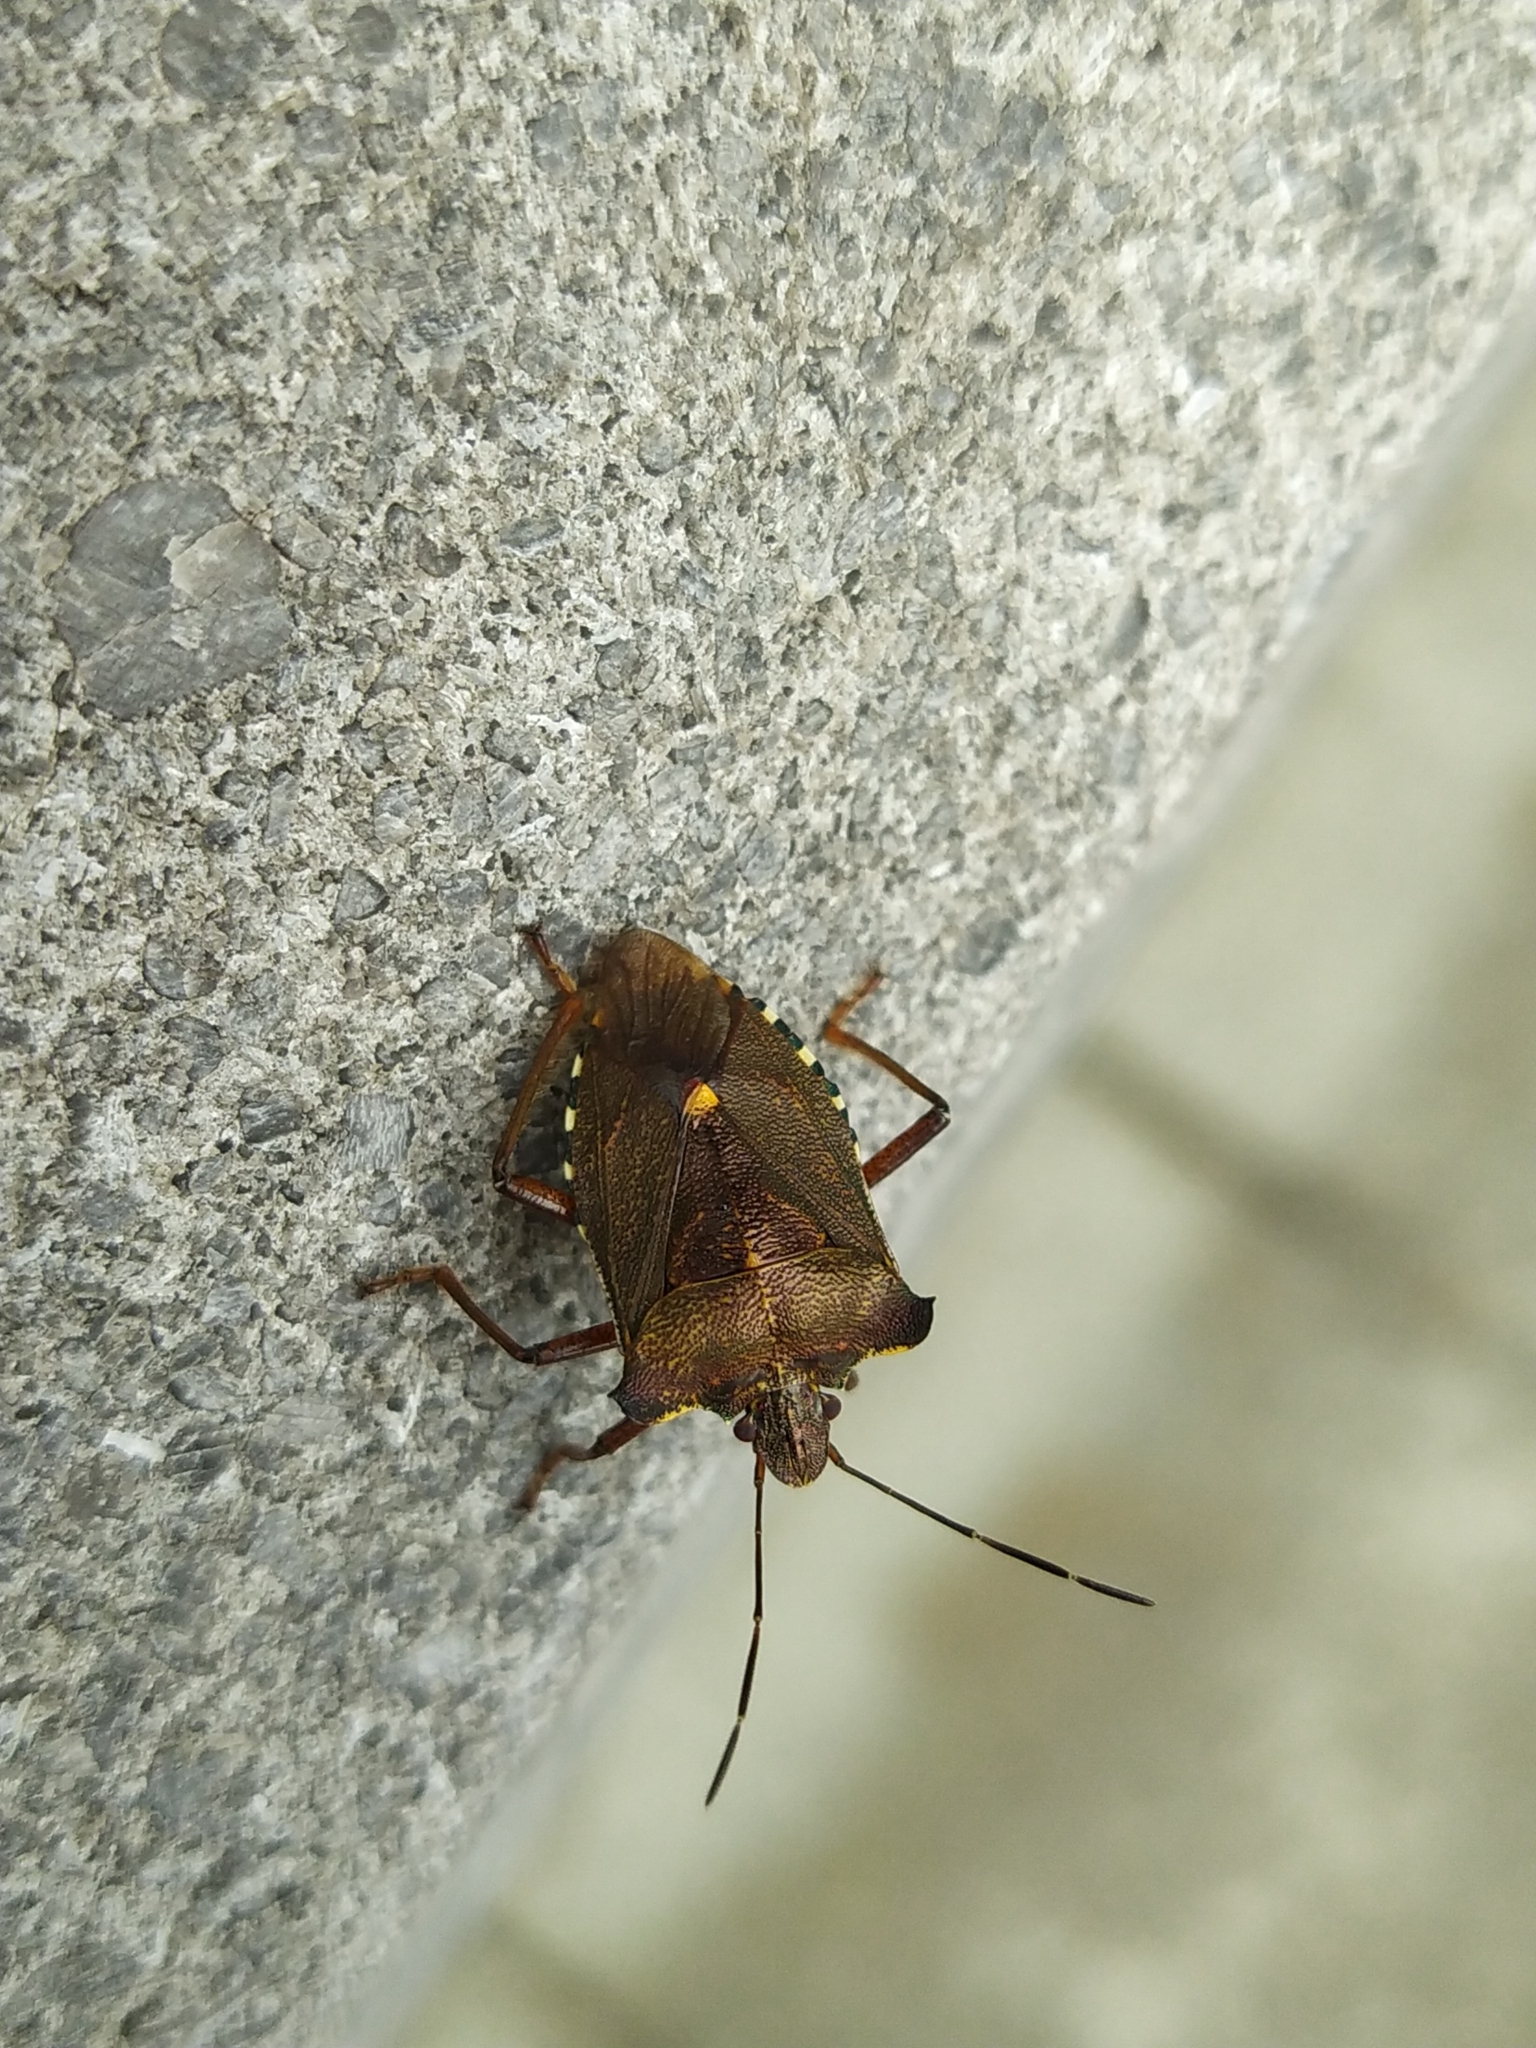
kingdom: Animalia
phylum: Arthropoda
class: Insecta
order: Hemiptera
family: Pentatomidae
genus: Pentatoma
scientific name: Pentatoma rufipes
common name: Forest bug
